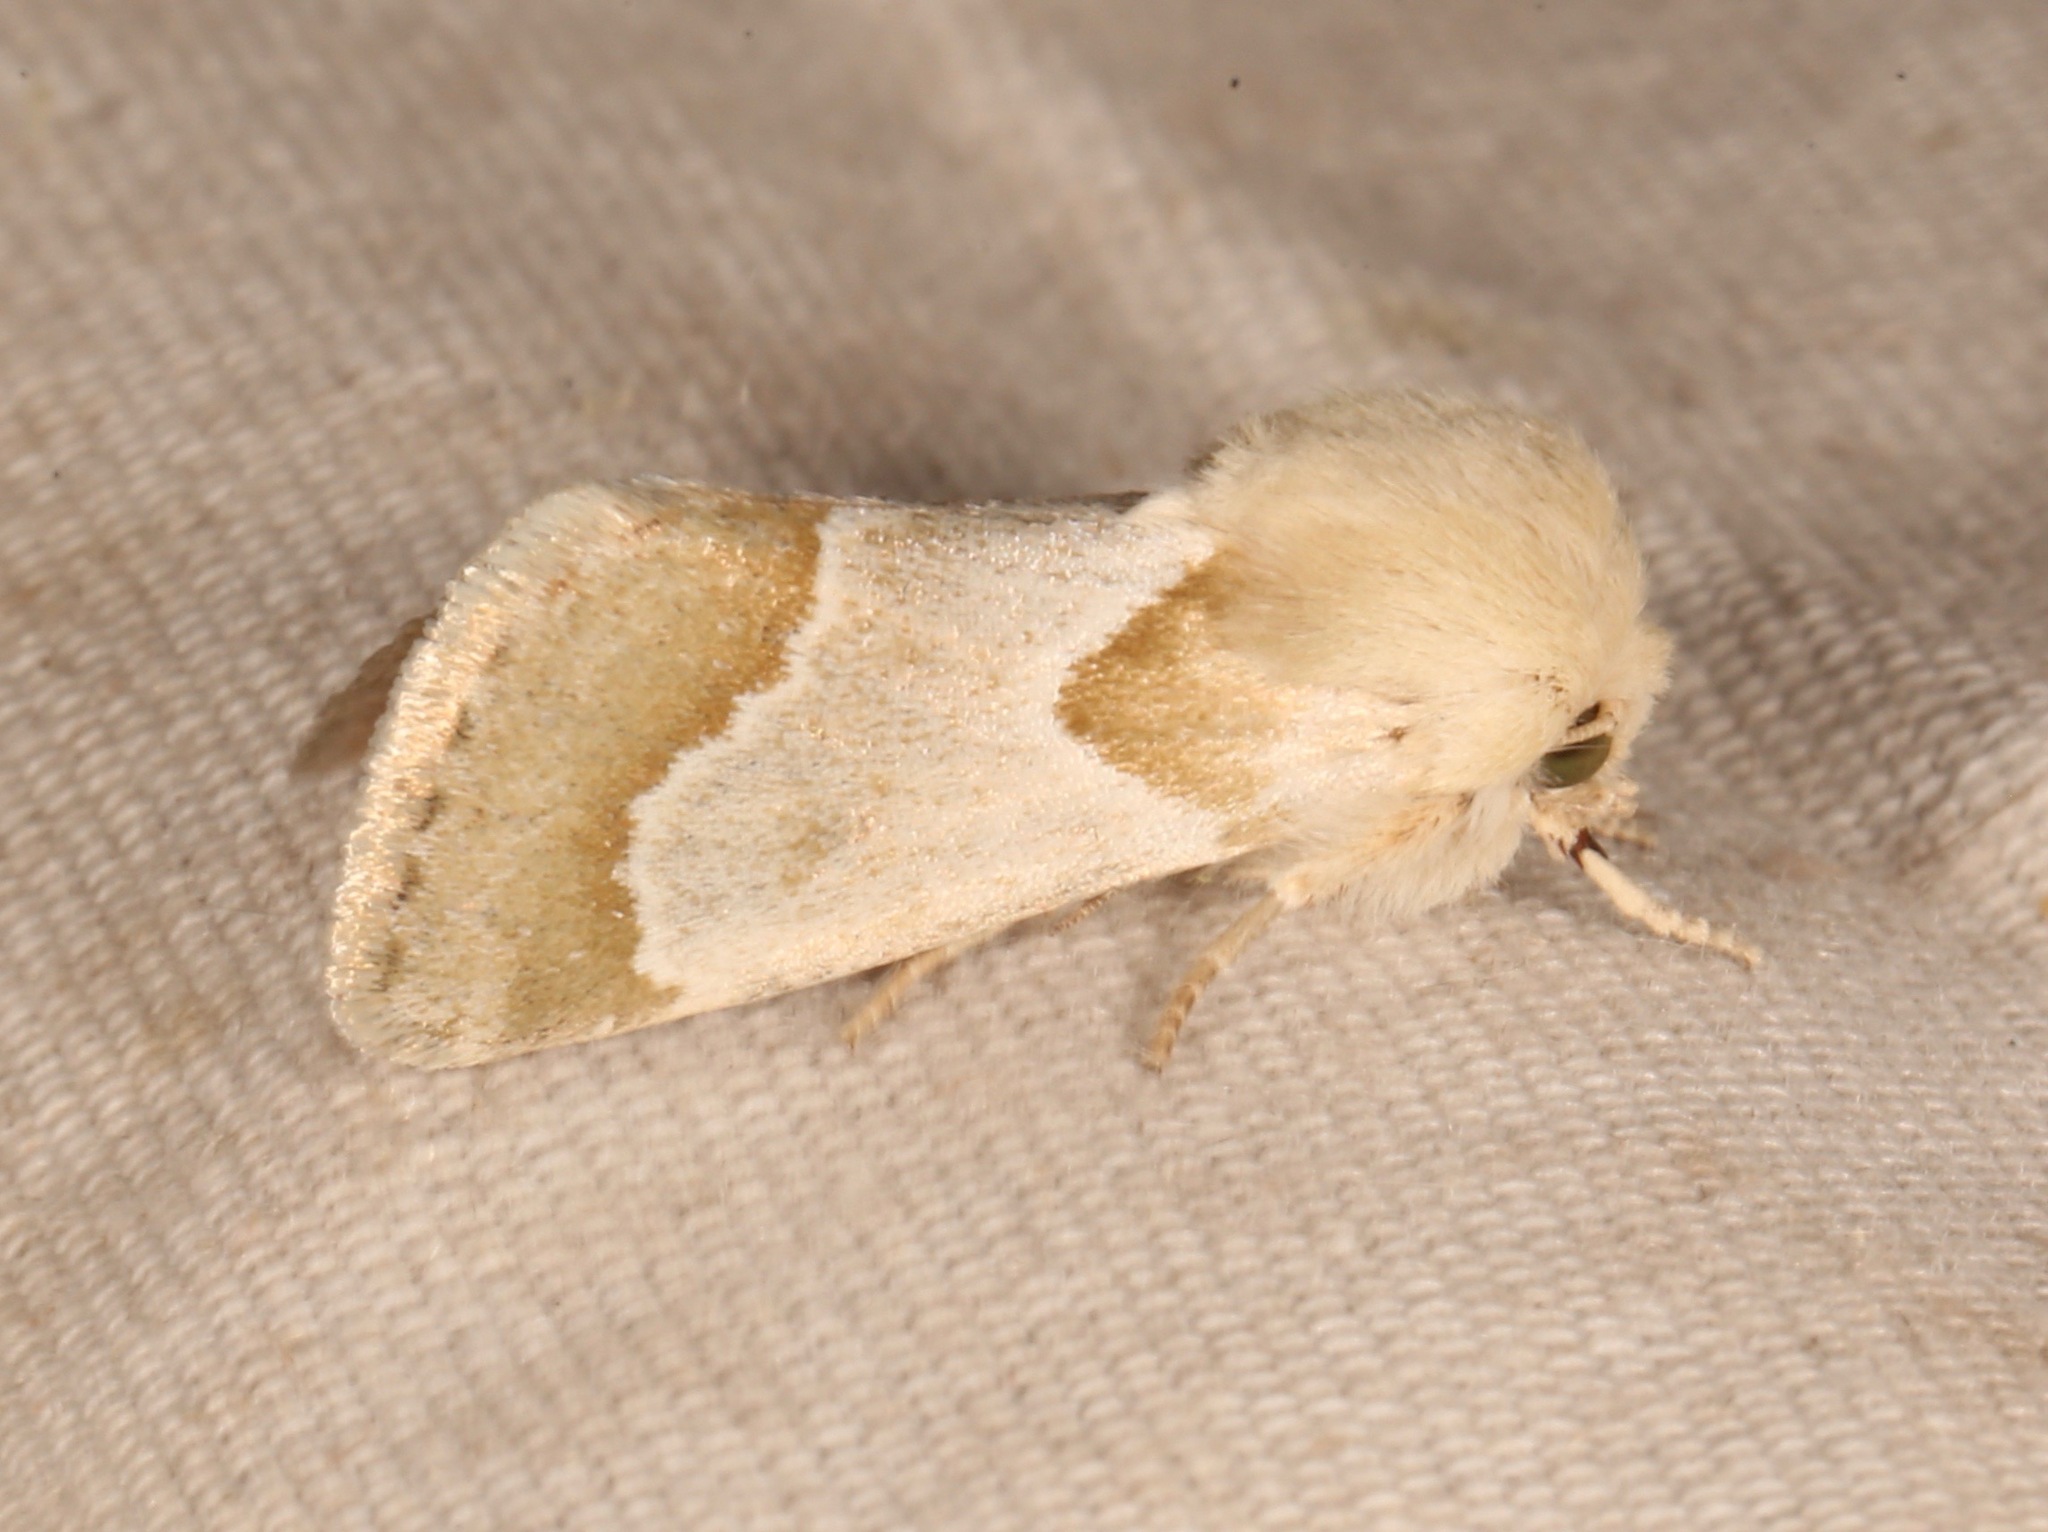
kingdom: Animalia
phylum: Arthropoda
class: Insecta
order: Lepidoptera
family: Noctuidae
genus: Schinia
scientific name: Schinia ligeae
